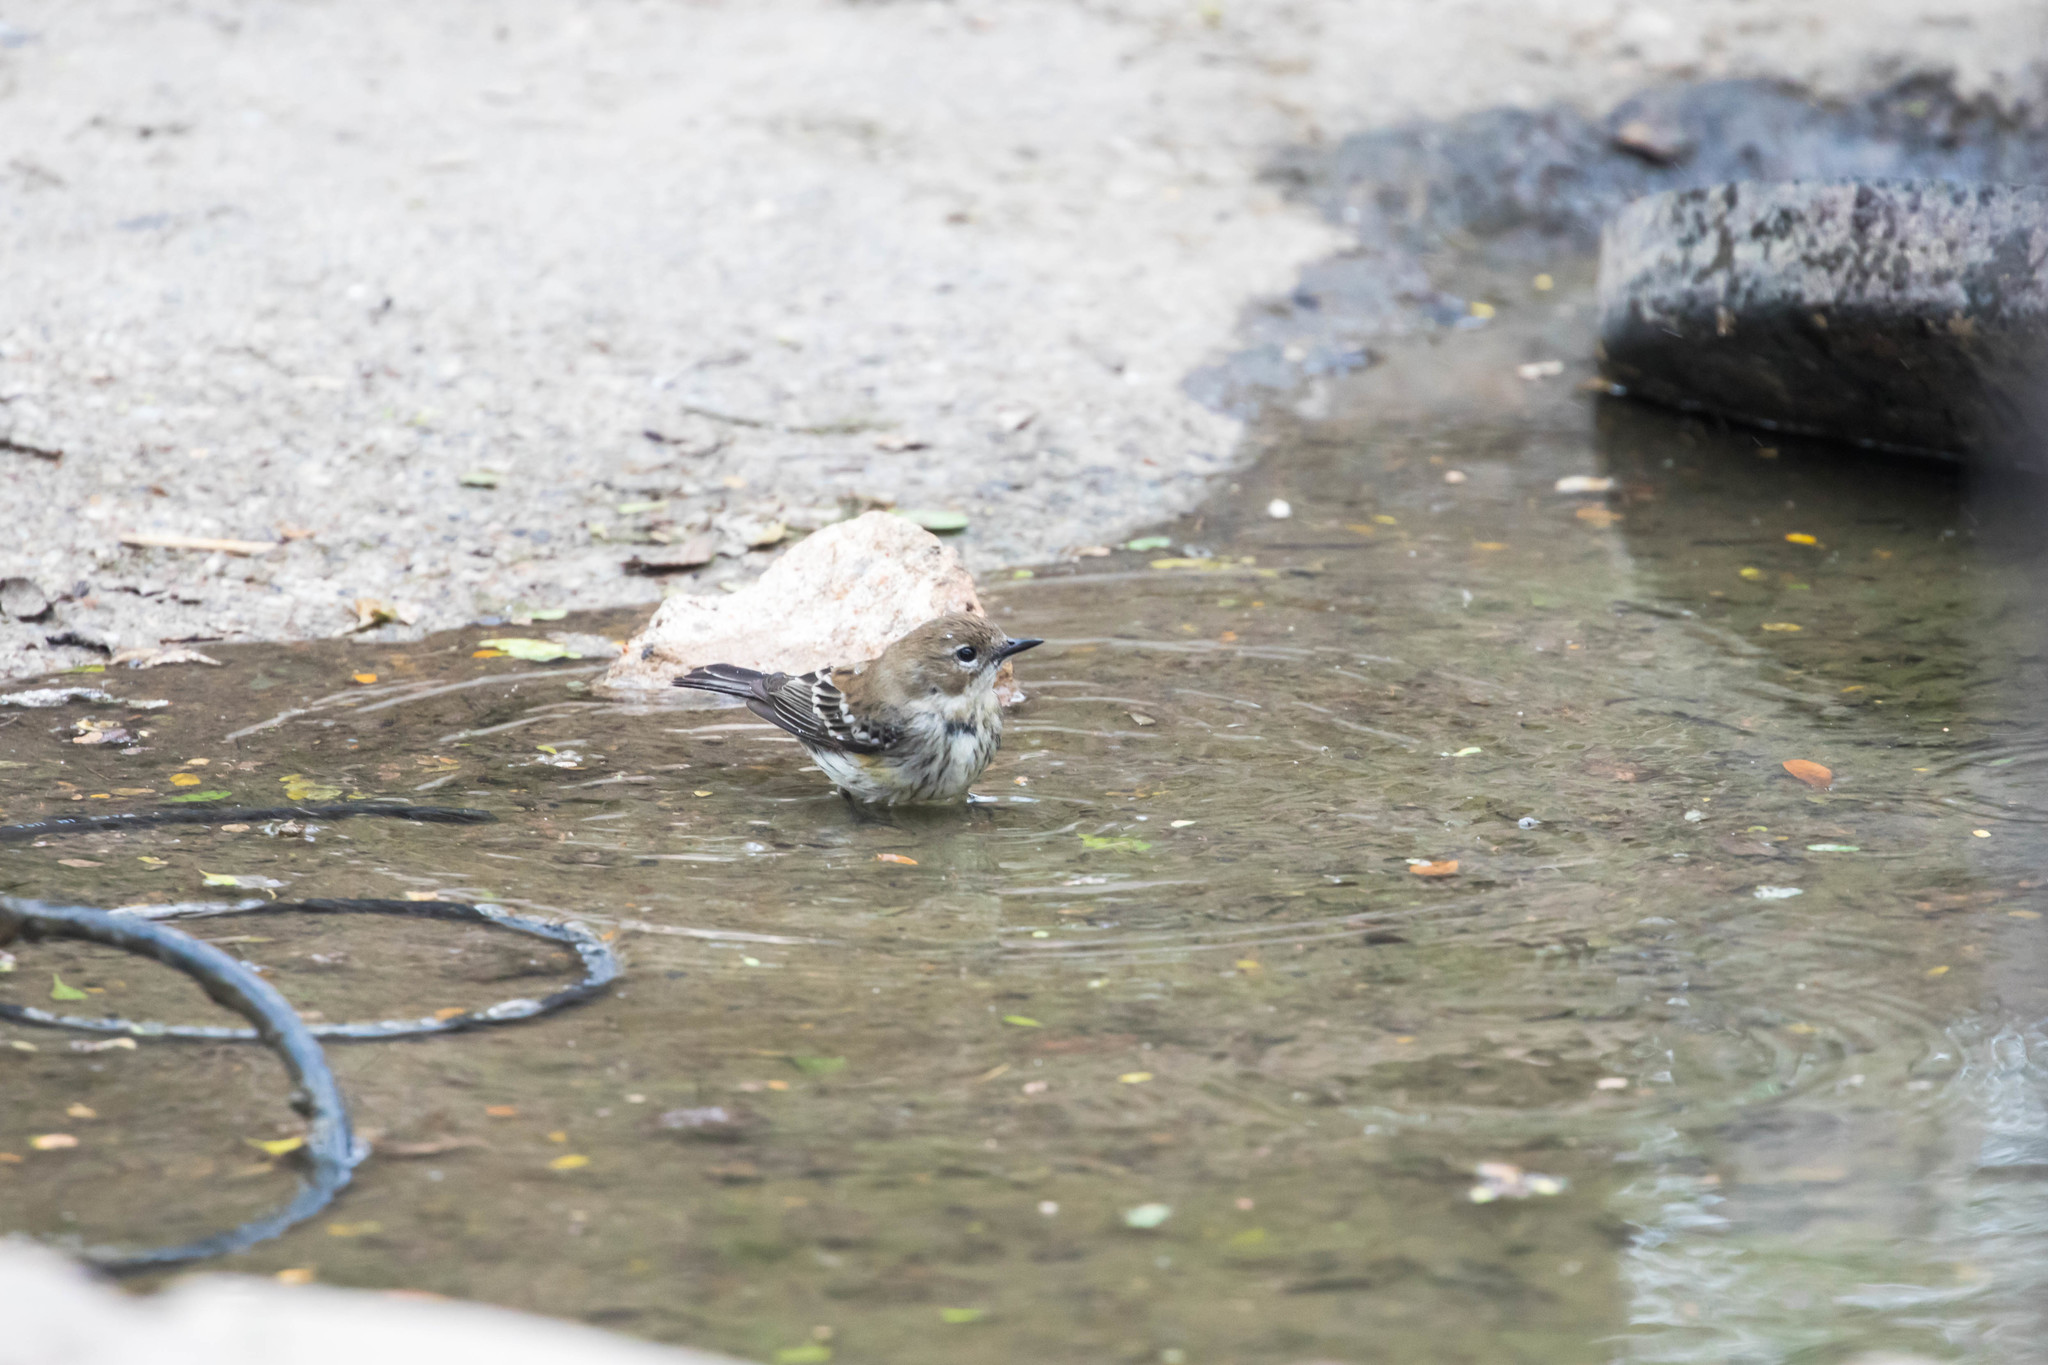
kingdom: Animalia
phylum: Chordata
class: Aves
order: Passeriformes
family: Parulidae
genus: Setophaga
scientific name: Setophaga coronata
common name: Myrtle warbler
